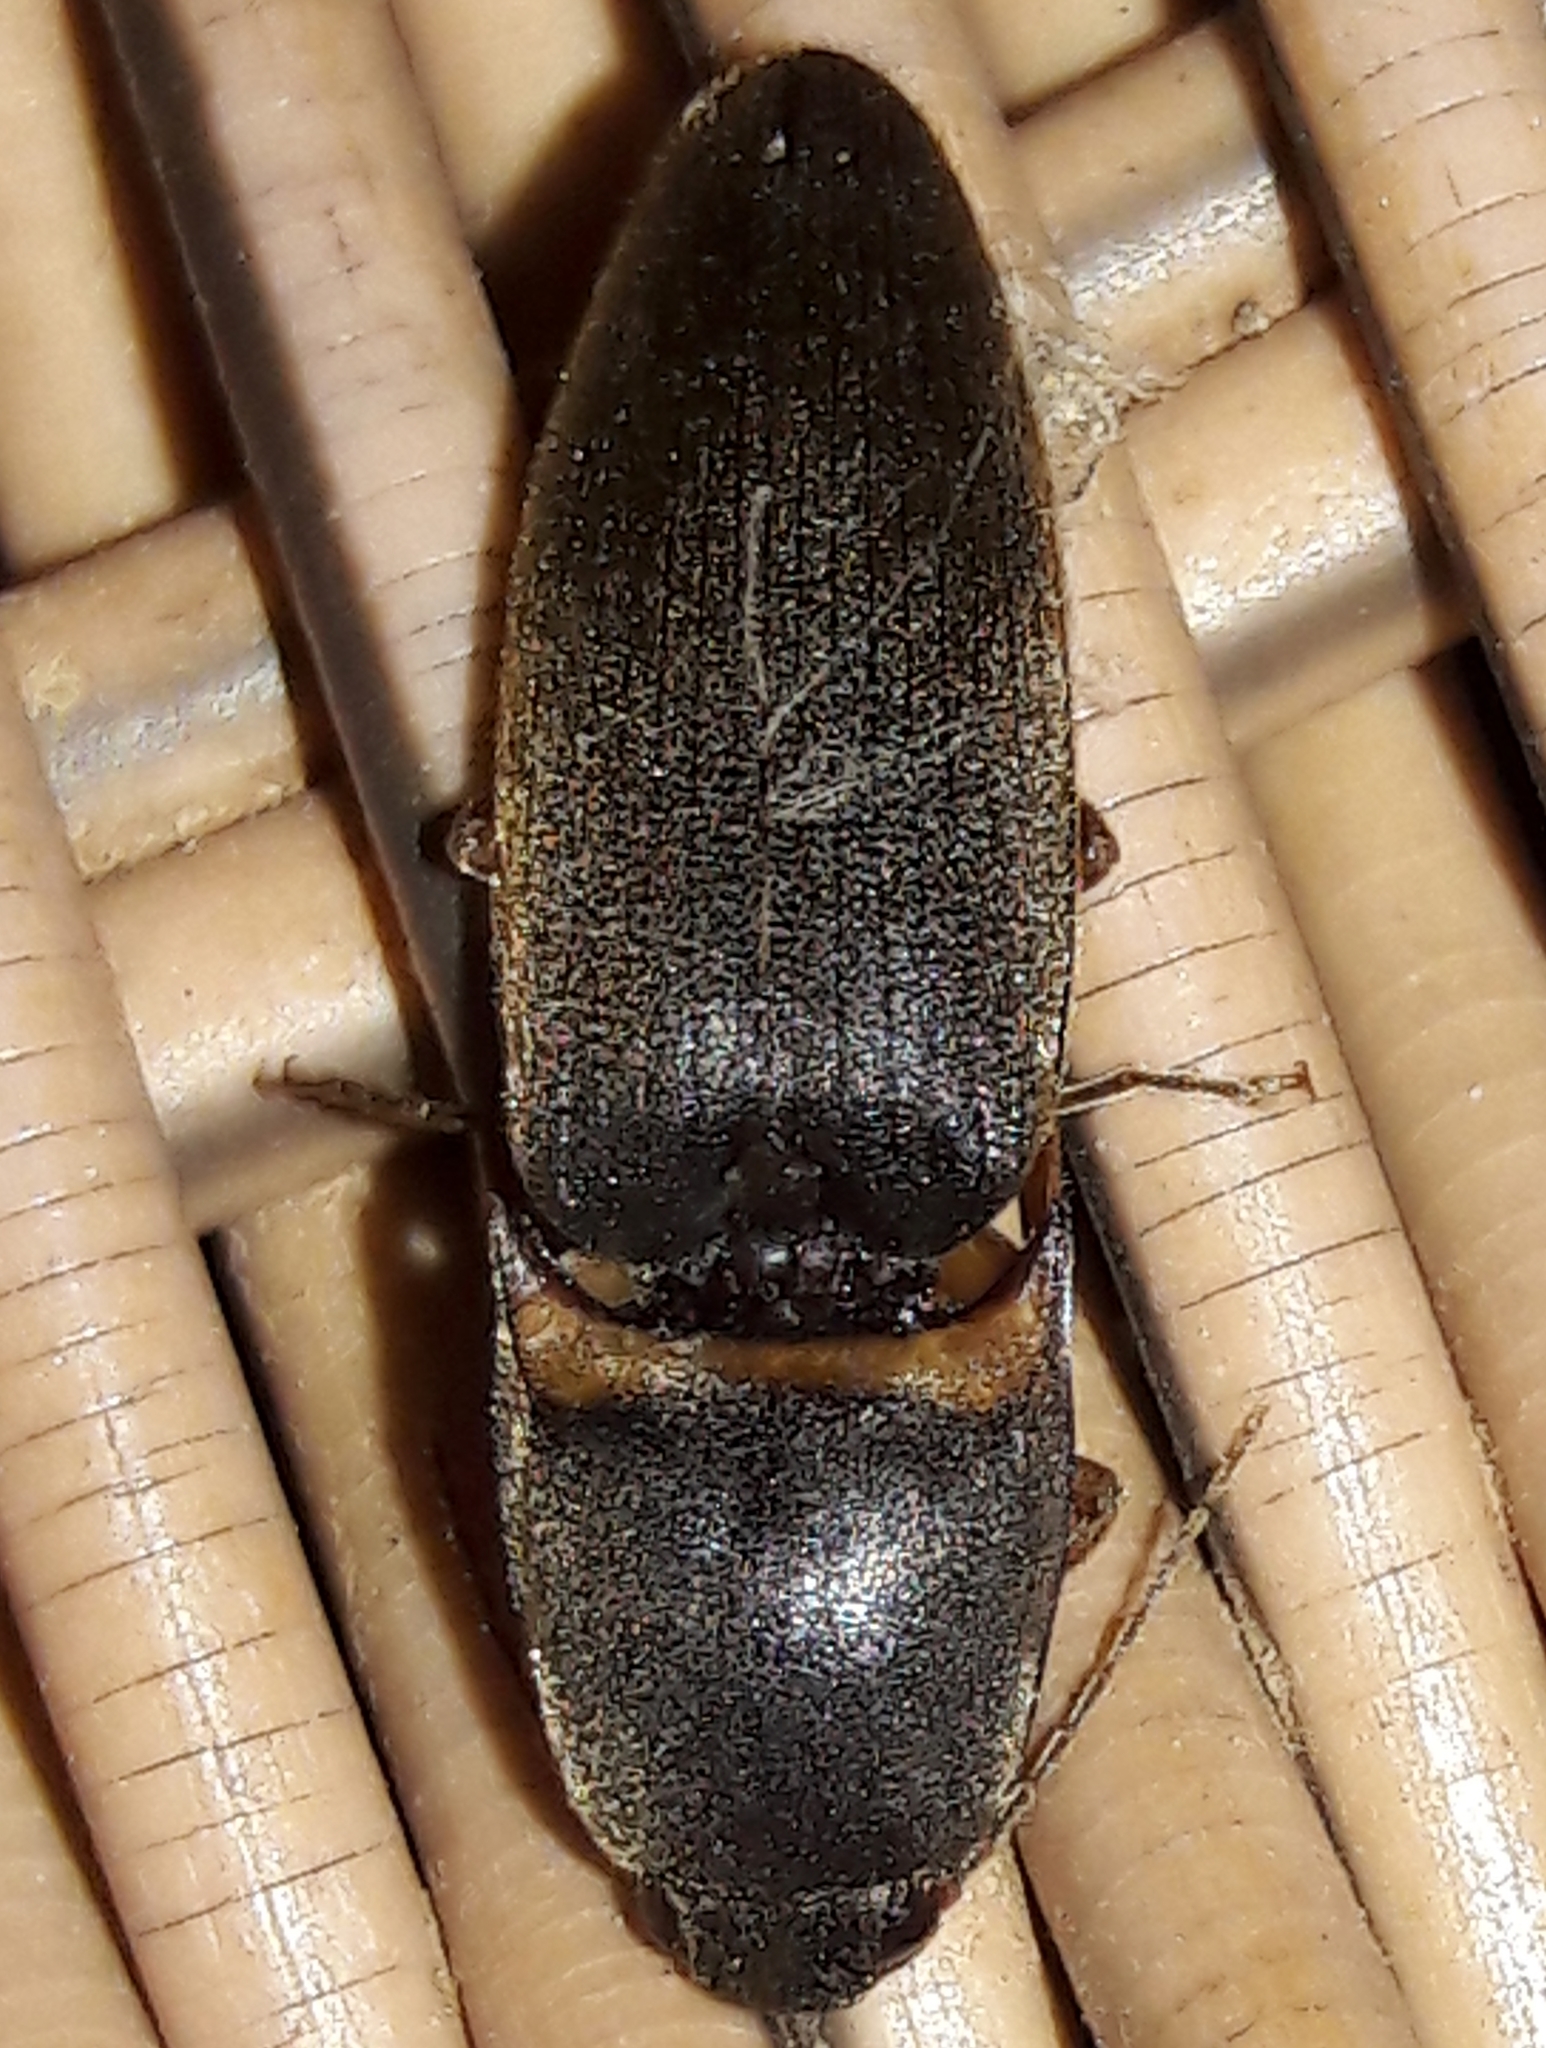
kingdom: Animalia
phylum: Arthropoda
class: Insecta
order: Coleoptera
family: Elateridae
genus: Monocrepidius
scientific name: Monocrepidius
